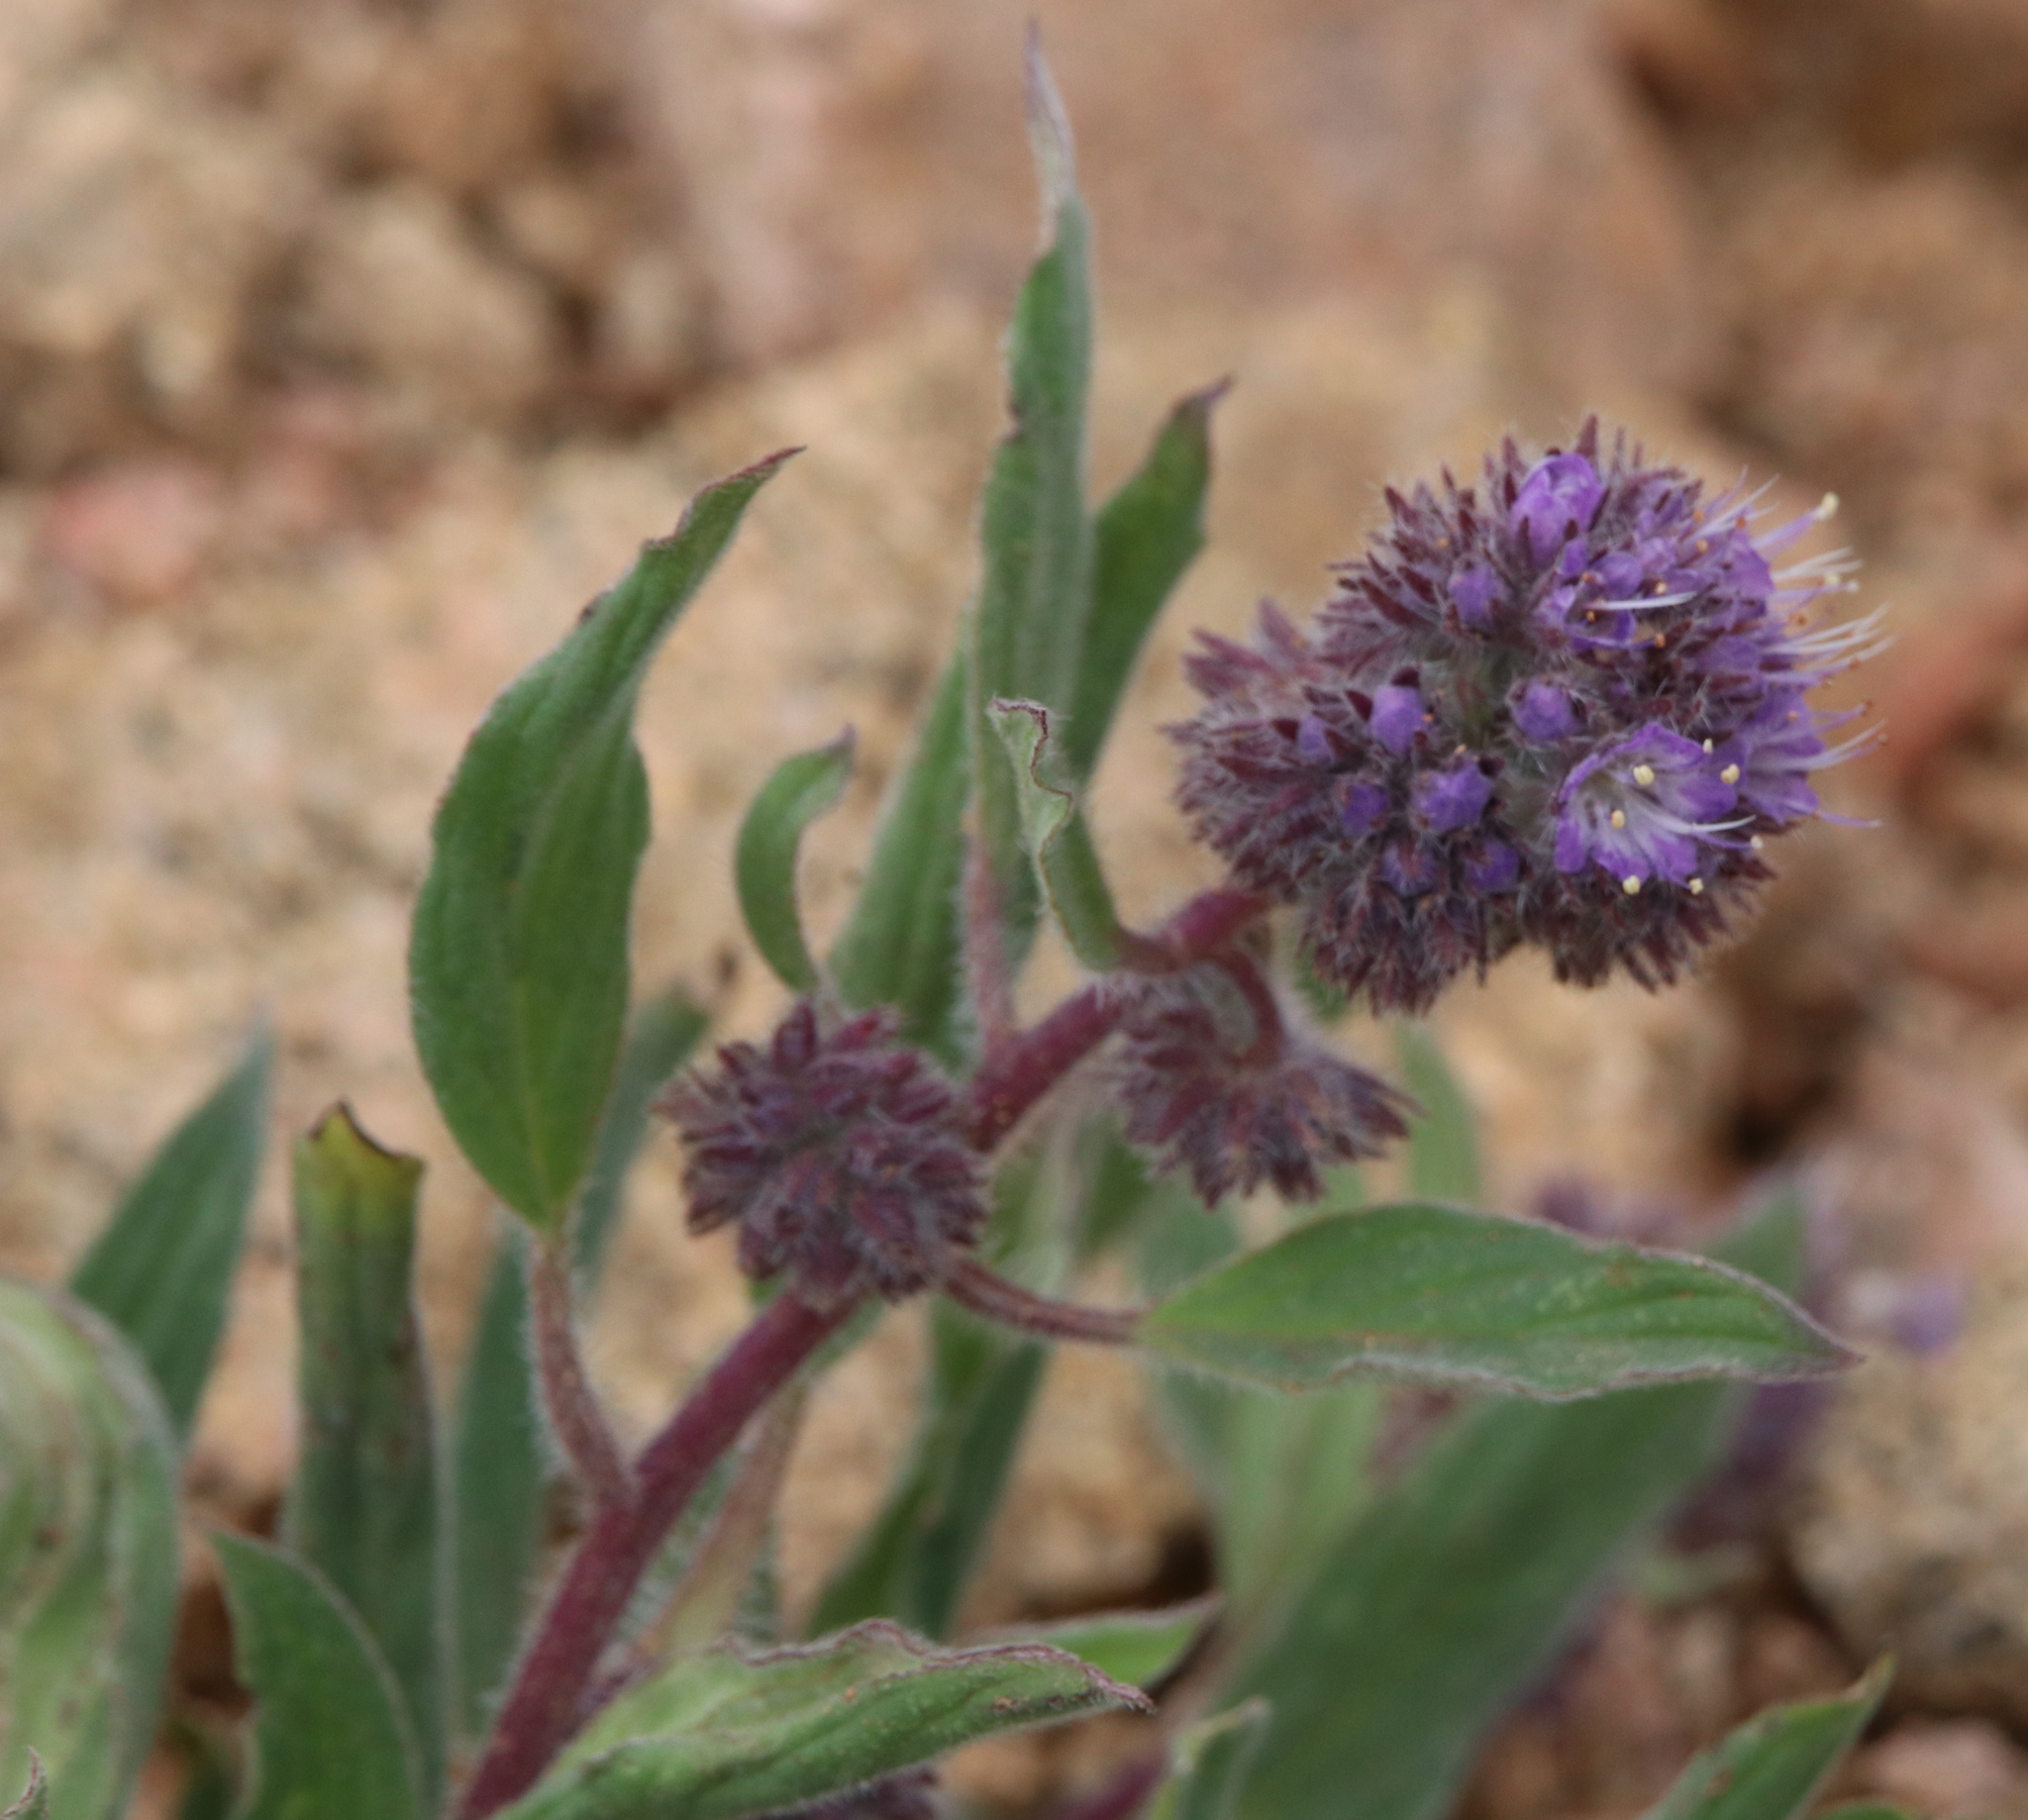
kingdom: Plantae
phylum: Tracheophyta
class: Magnoliopsida
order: Boraginales
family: Hydrophyllaceae
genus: Phacelia
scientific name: Phacelia hastata
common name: Silver-leaved phacelia
